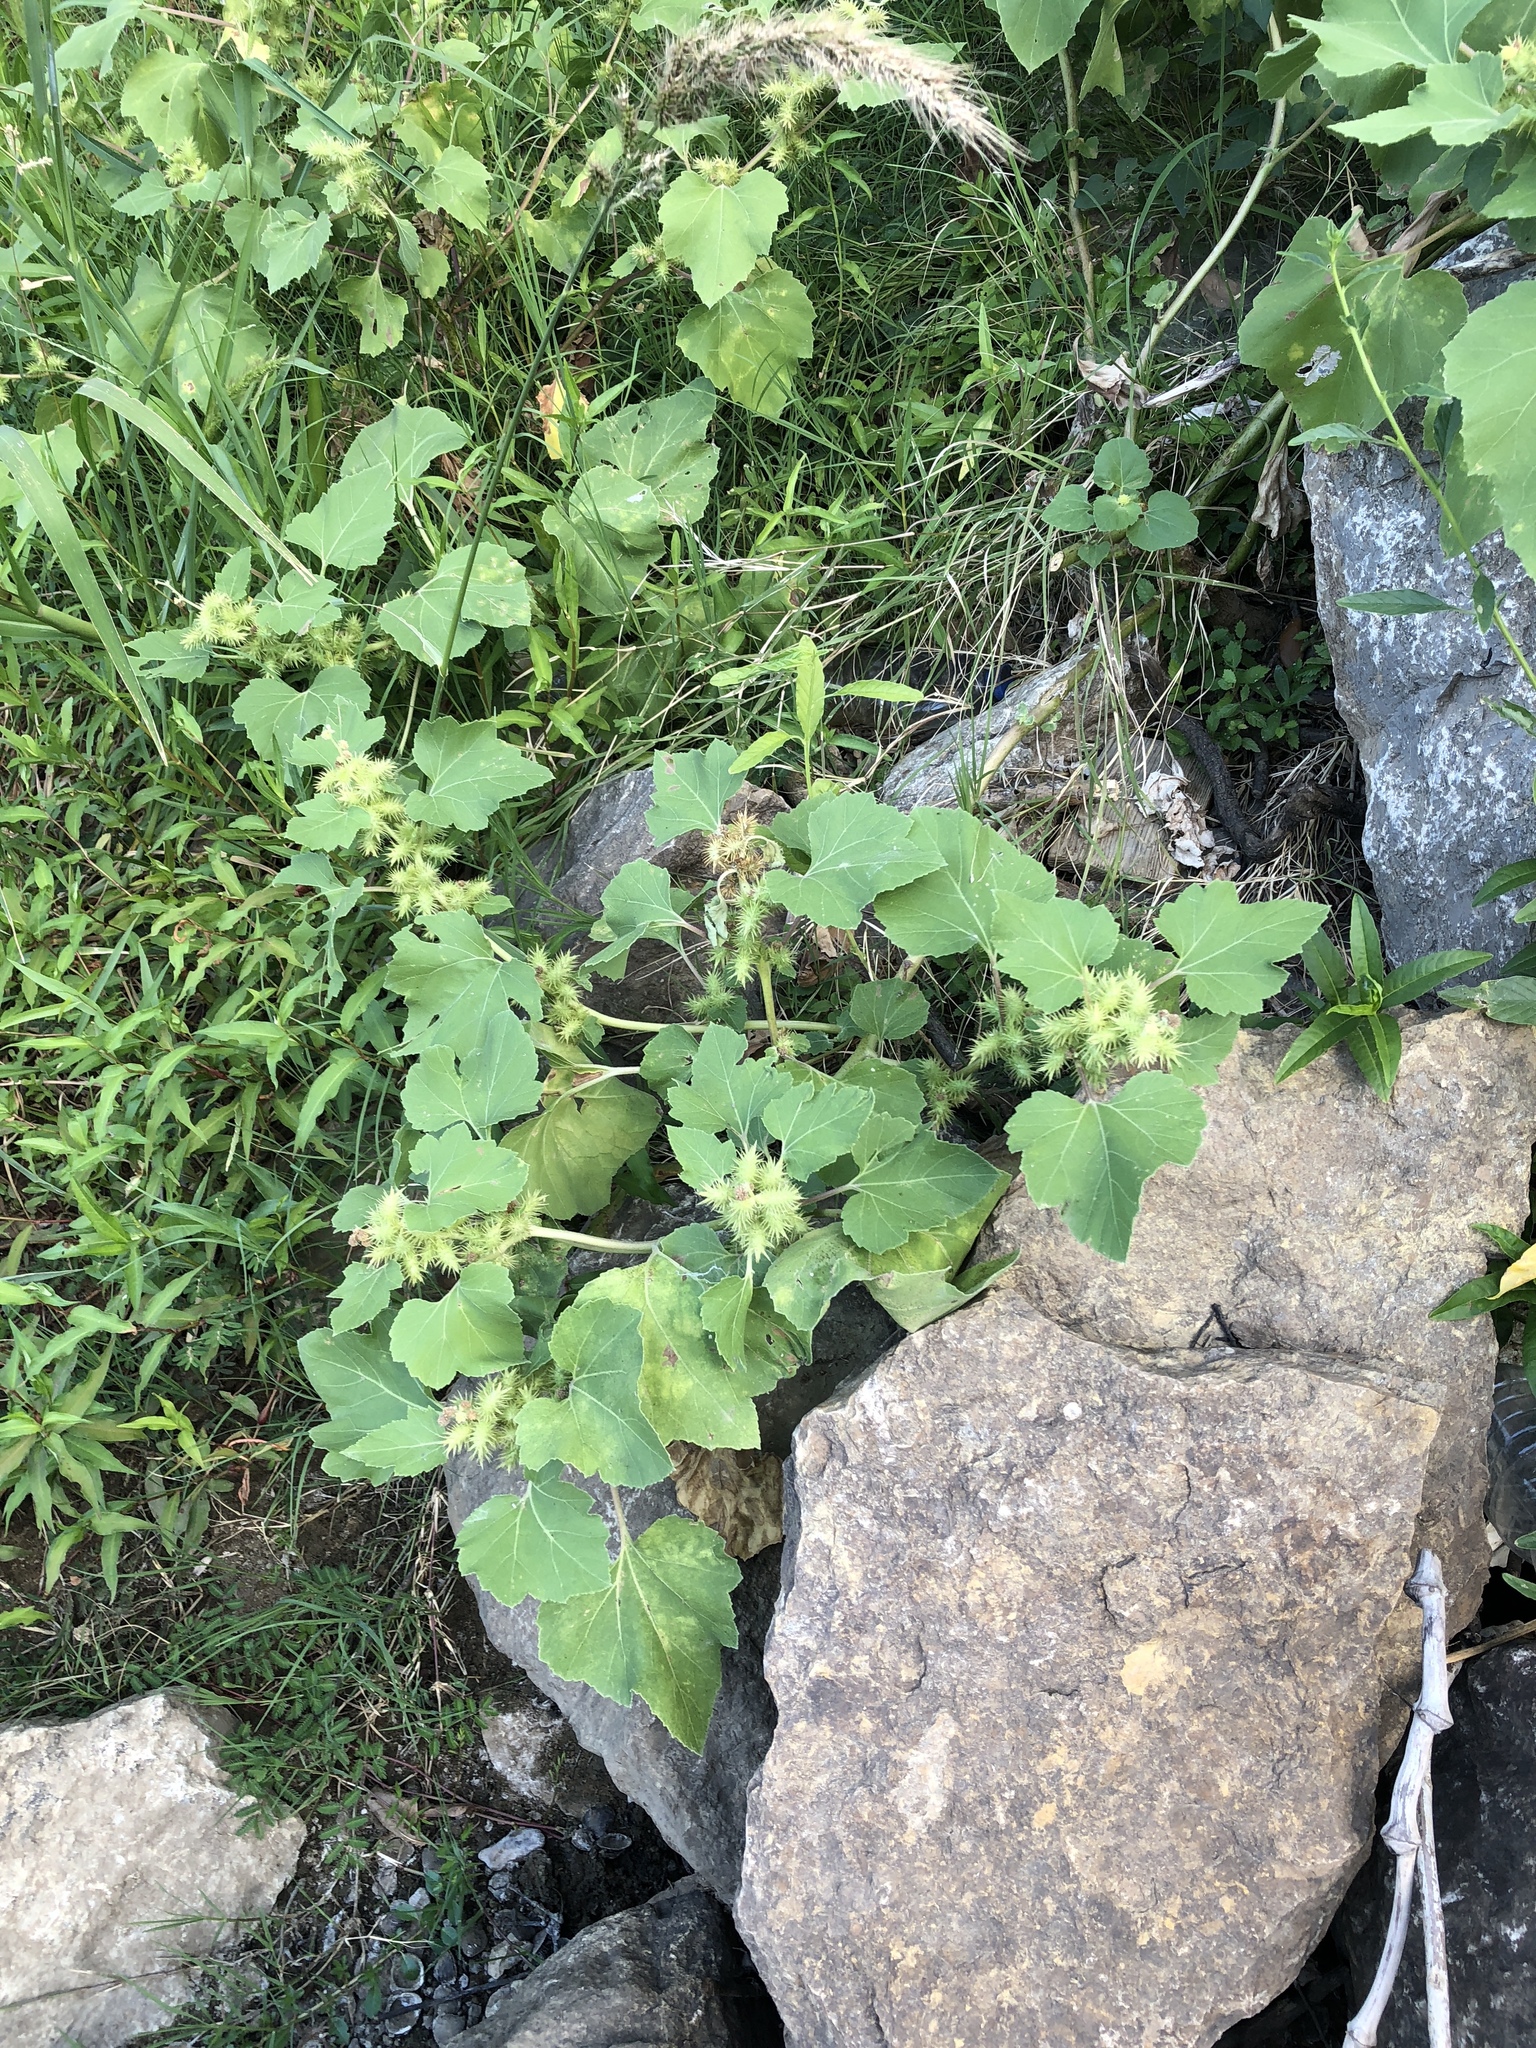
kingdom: Plantae
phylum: Tracheophyta
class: Magnoliopsida
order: Asterales
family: Asteraceae
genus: Xanthium
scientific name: Xanthium strumarium
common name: Rough cocklebur
